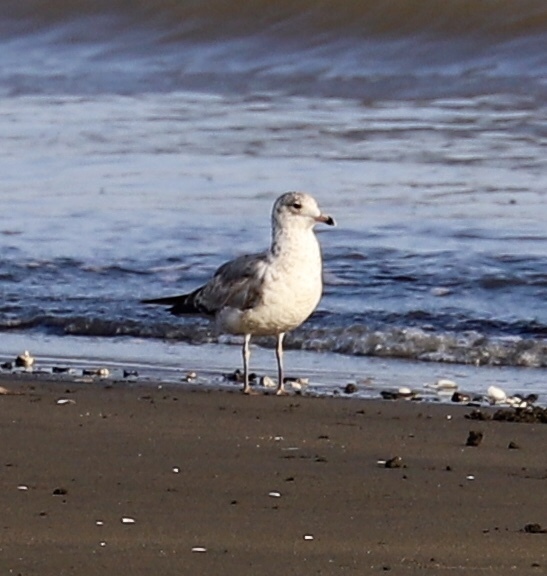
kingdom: Animalia
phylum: Chordata
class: Aves
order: Charadriiformes
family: Laridae
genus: Larus
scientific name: Larus delawarensis
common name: Ring-billed gull
